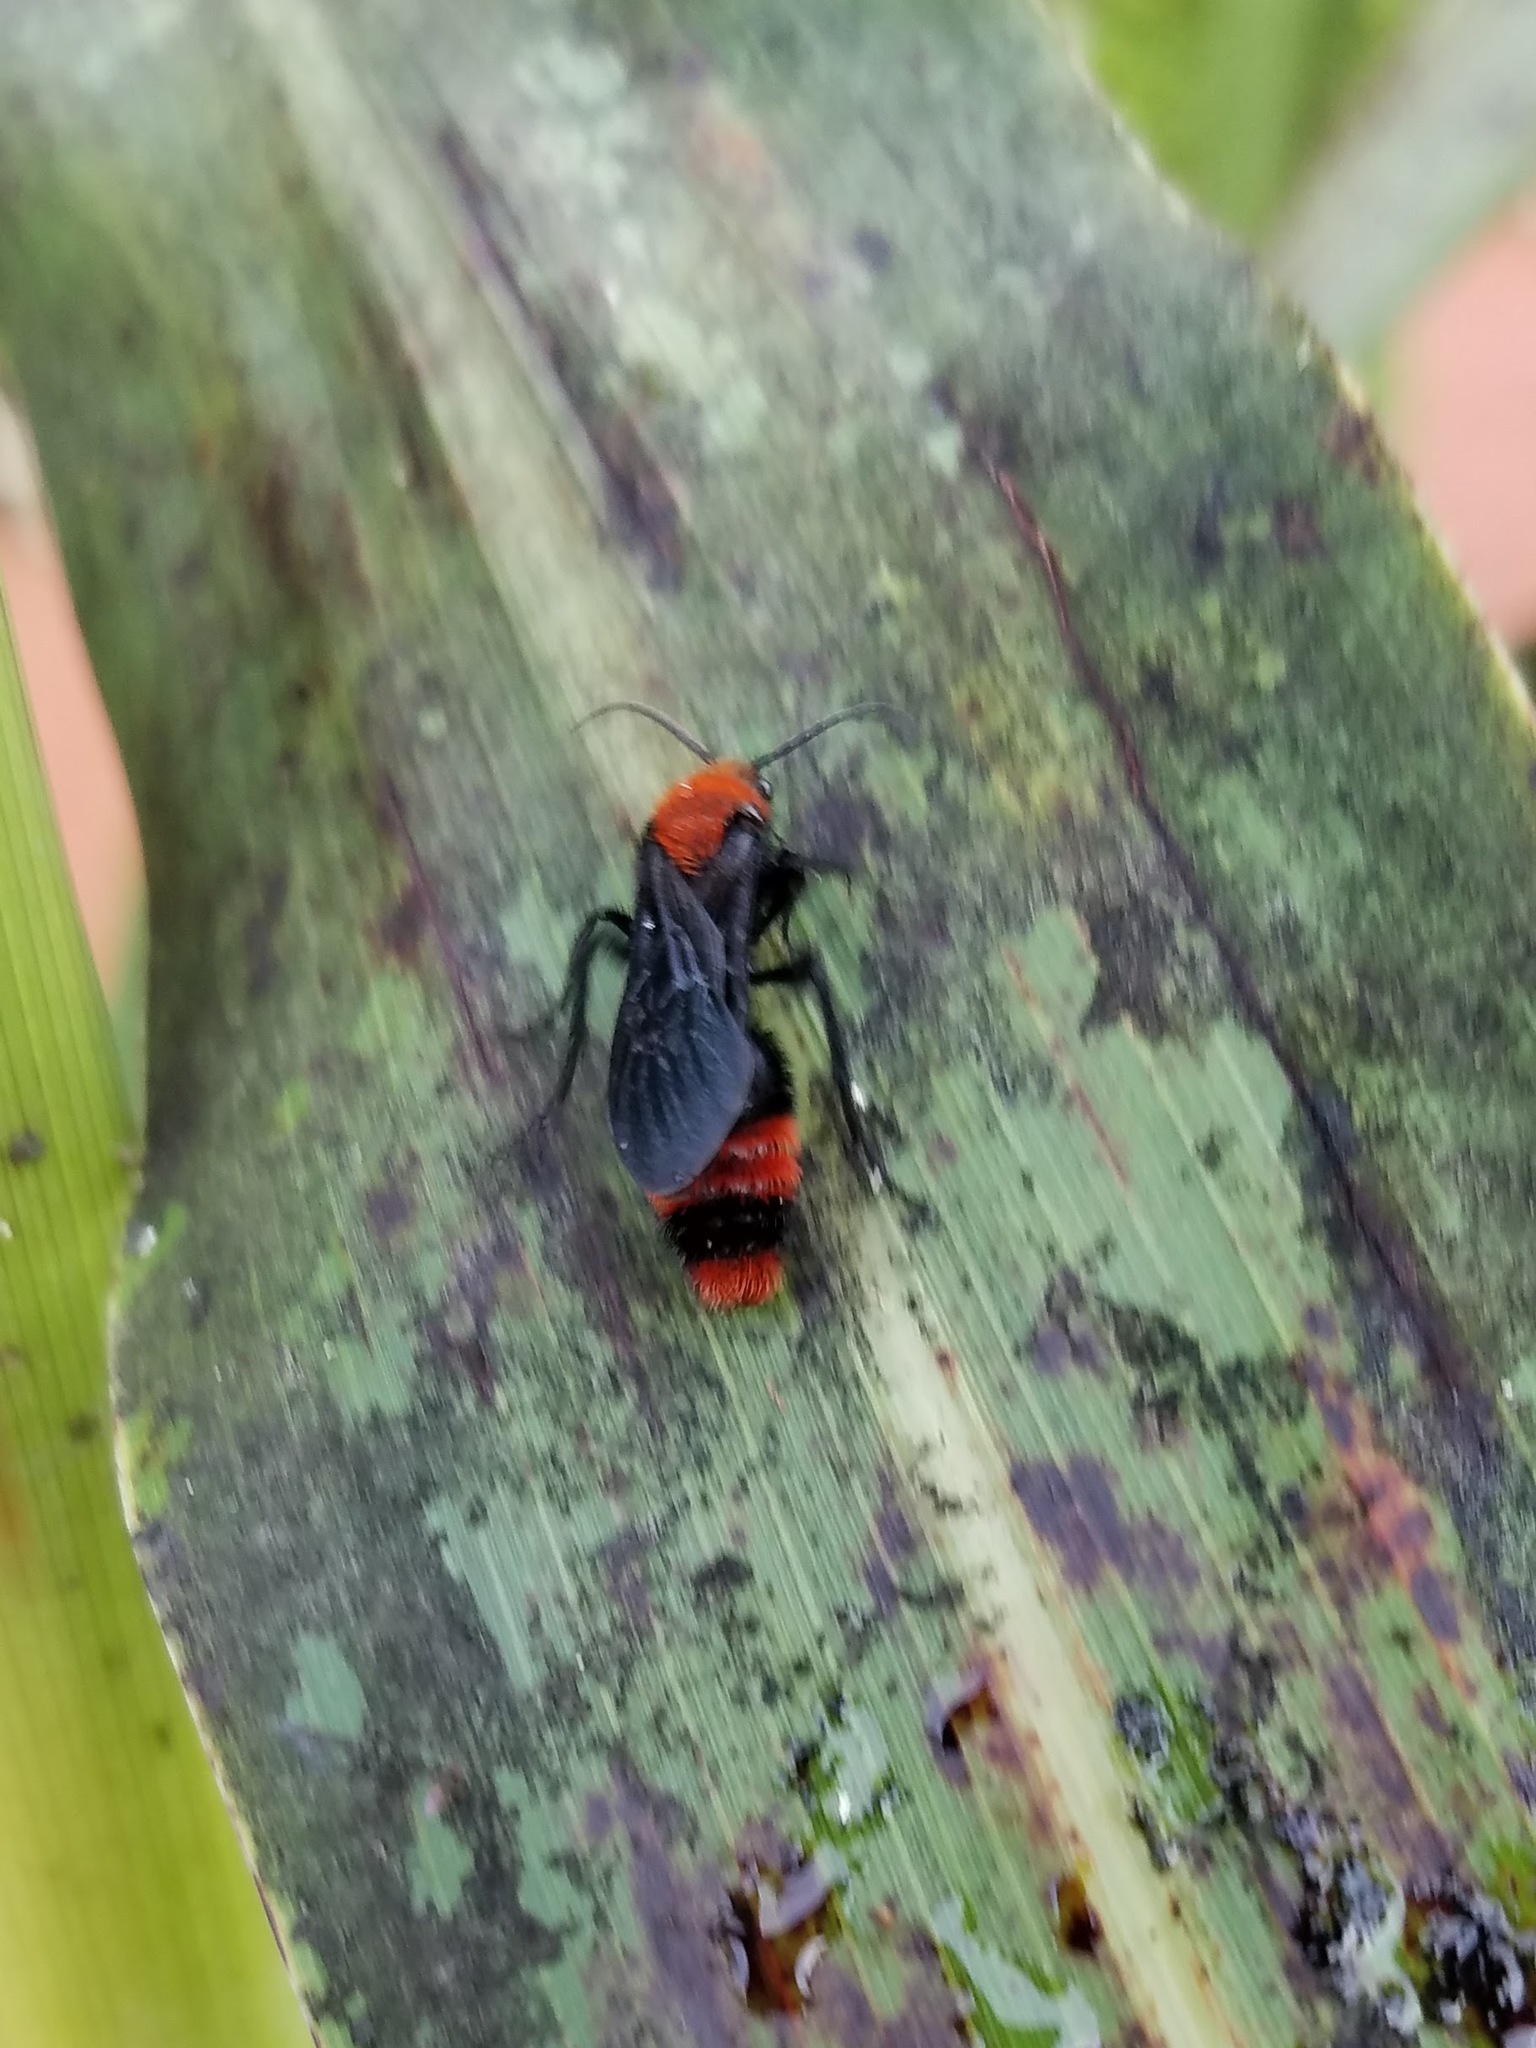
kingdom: Animalia
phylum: Arthropoda
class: Insecta
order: Hymenoptera
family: Mutillidae
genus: Dasymutilla
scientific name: Dasymutilla occidentalis
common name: Common eastern velvet ant
